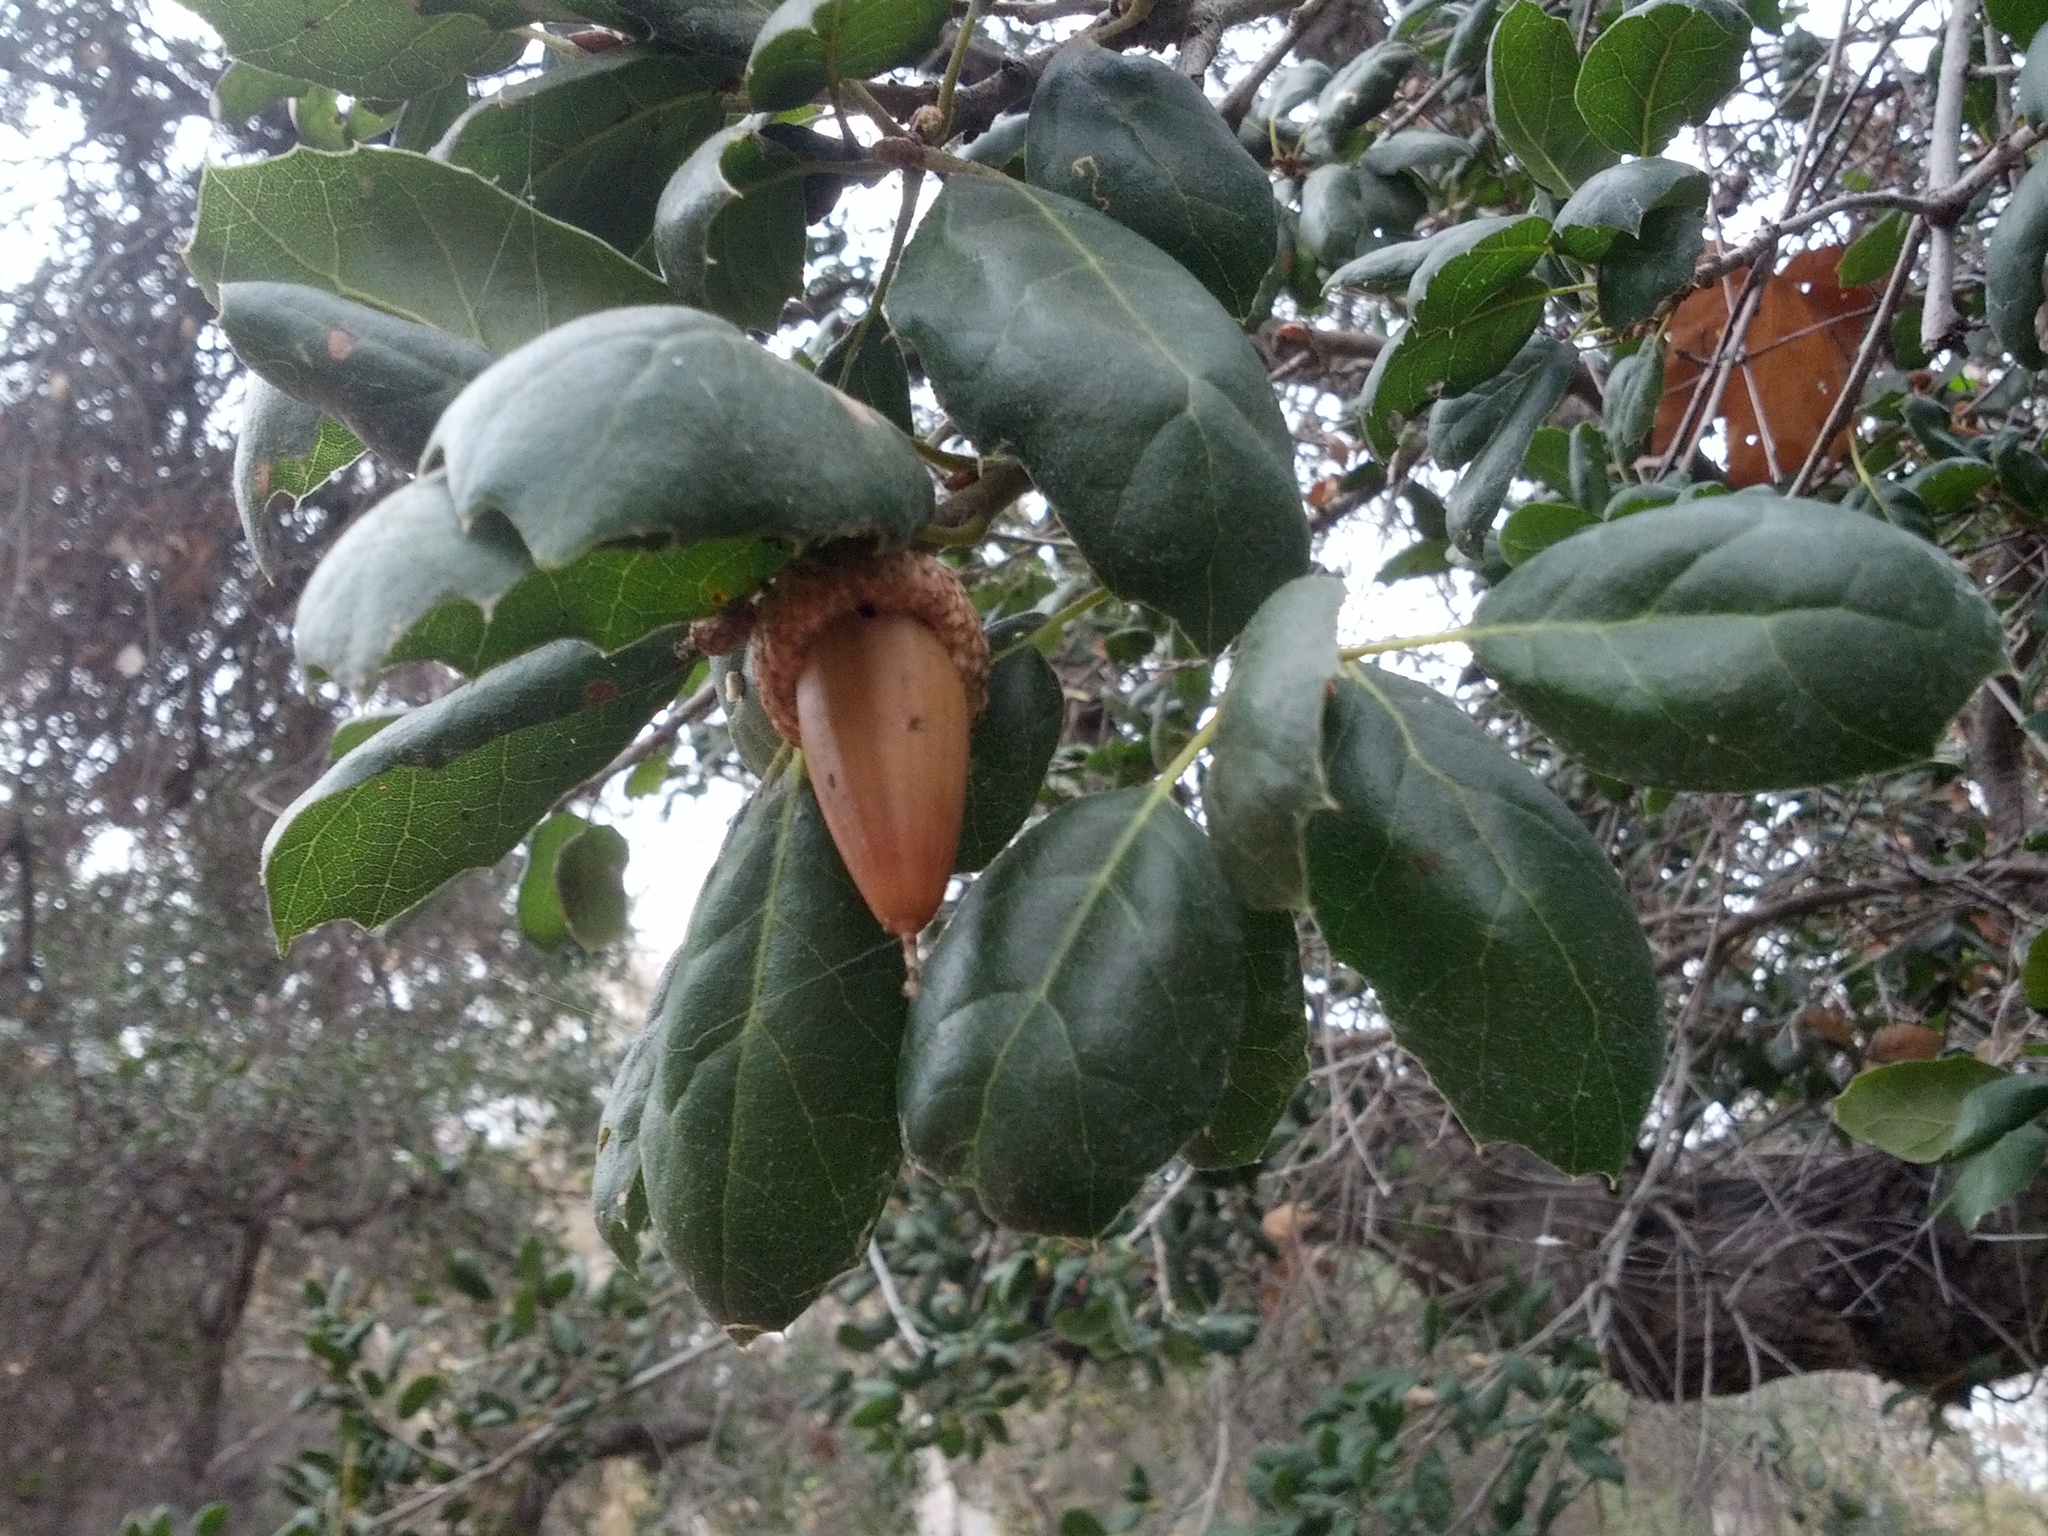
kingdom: Plantae
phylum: Tracheophyta
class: Magnoliopsida
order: Fagales
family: Fagaceae
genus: Quercus
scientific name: Quercus agrifolia
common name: California live oak
